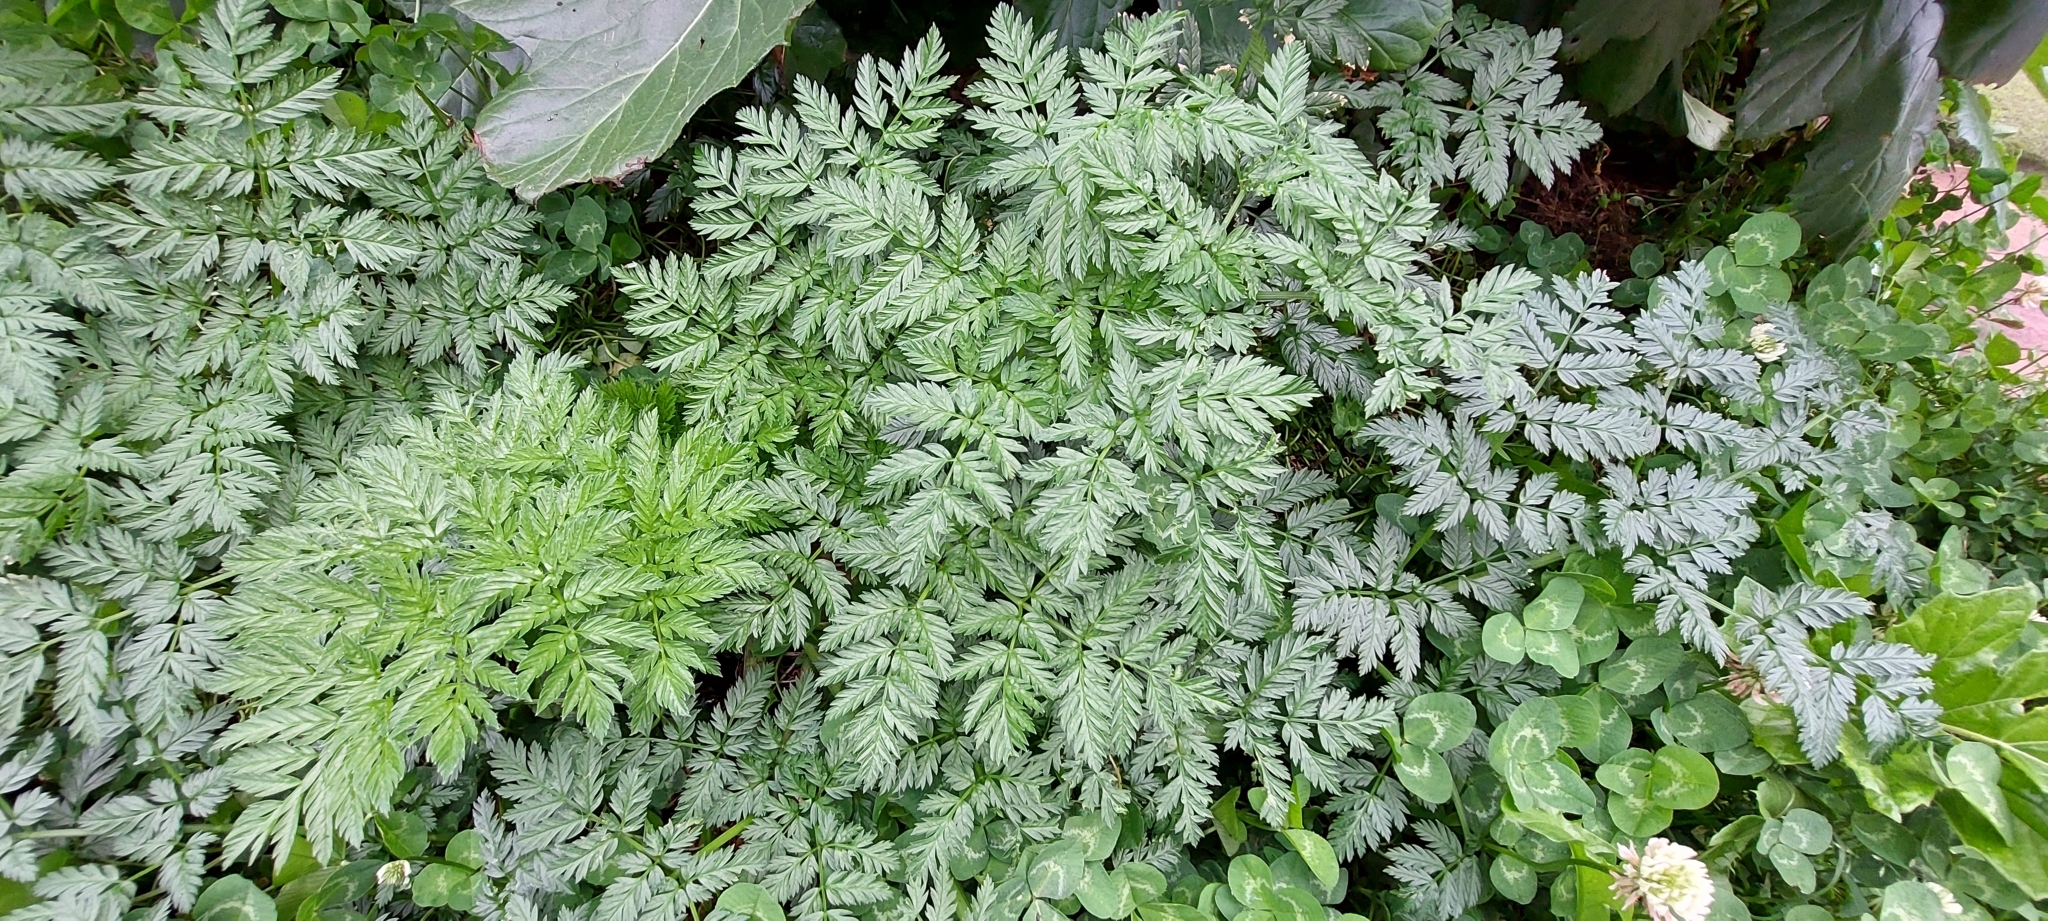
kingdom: Plantae
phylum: Tracheophyta
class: Magnoliopsida
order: Apiales
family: Apiaceae
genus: Conium
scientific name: Conium maculatum
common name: Hemlock
